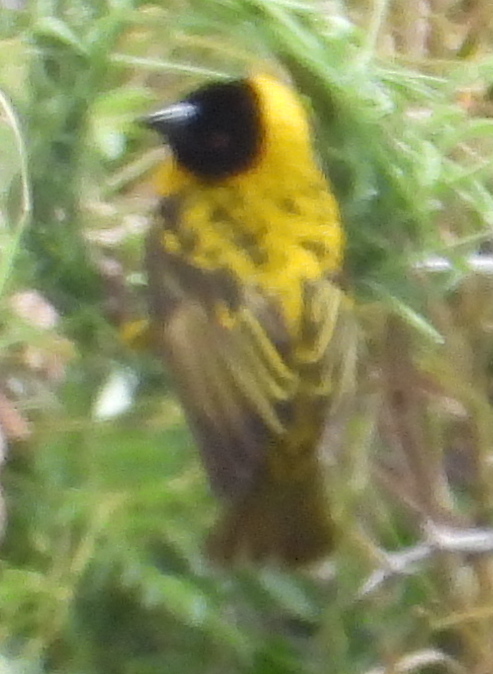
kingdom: Animalia
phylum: Chordata
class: Aves
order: Passeriformes
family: Ploceidae
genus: Ploceus
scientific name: Ploceus cucullatus
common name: Village weaver
